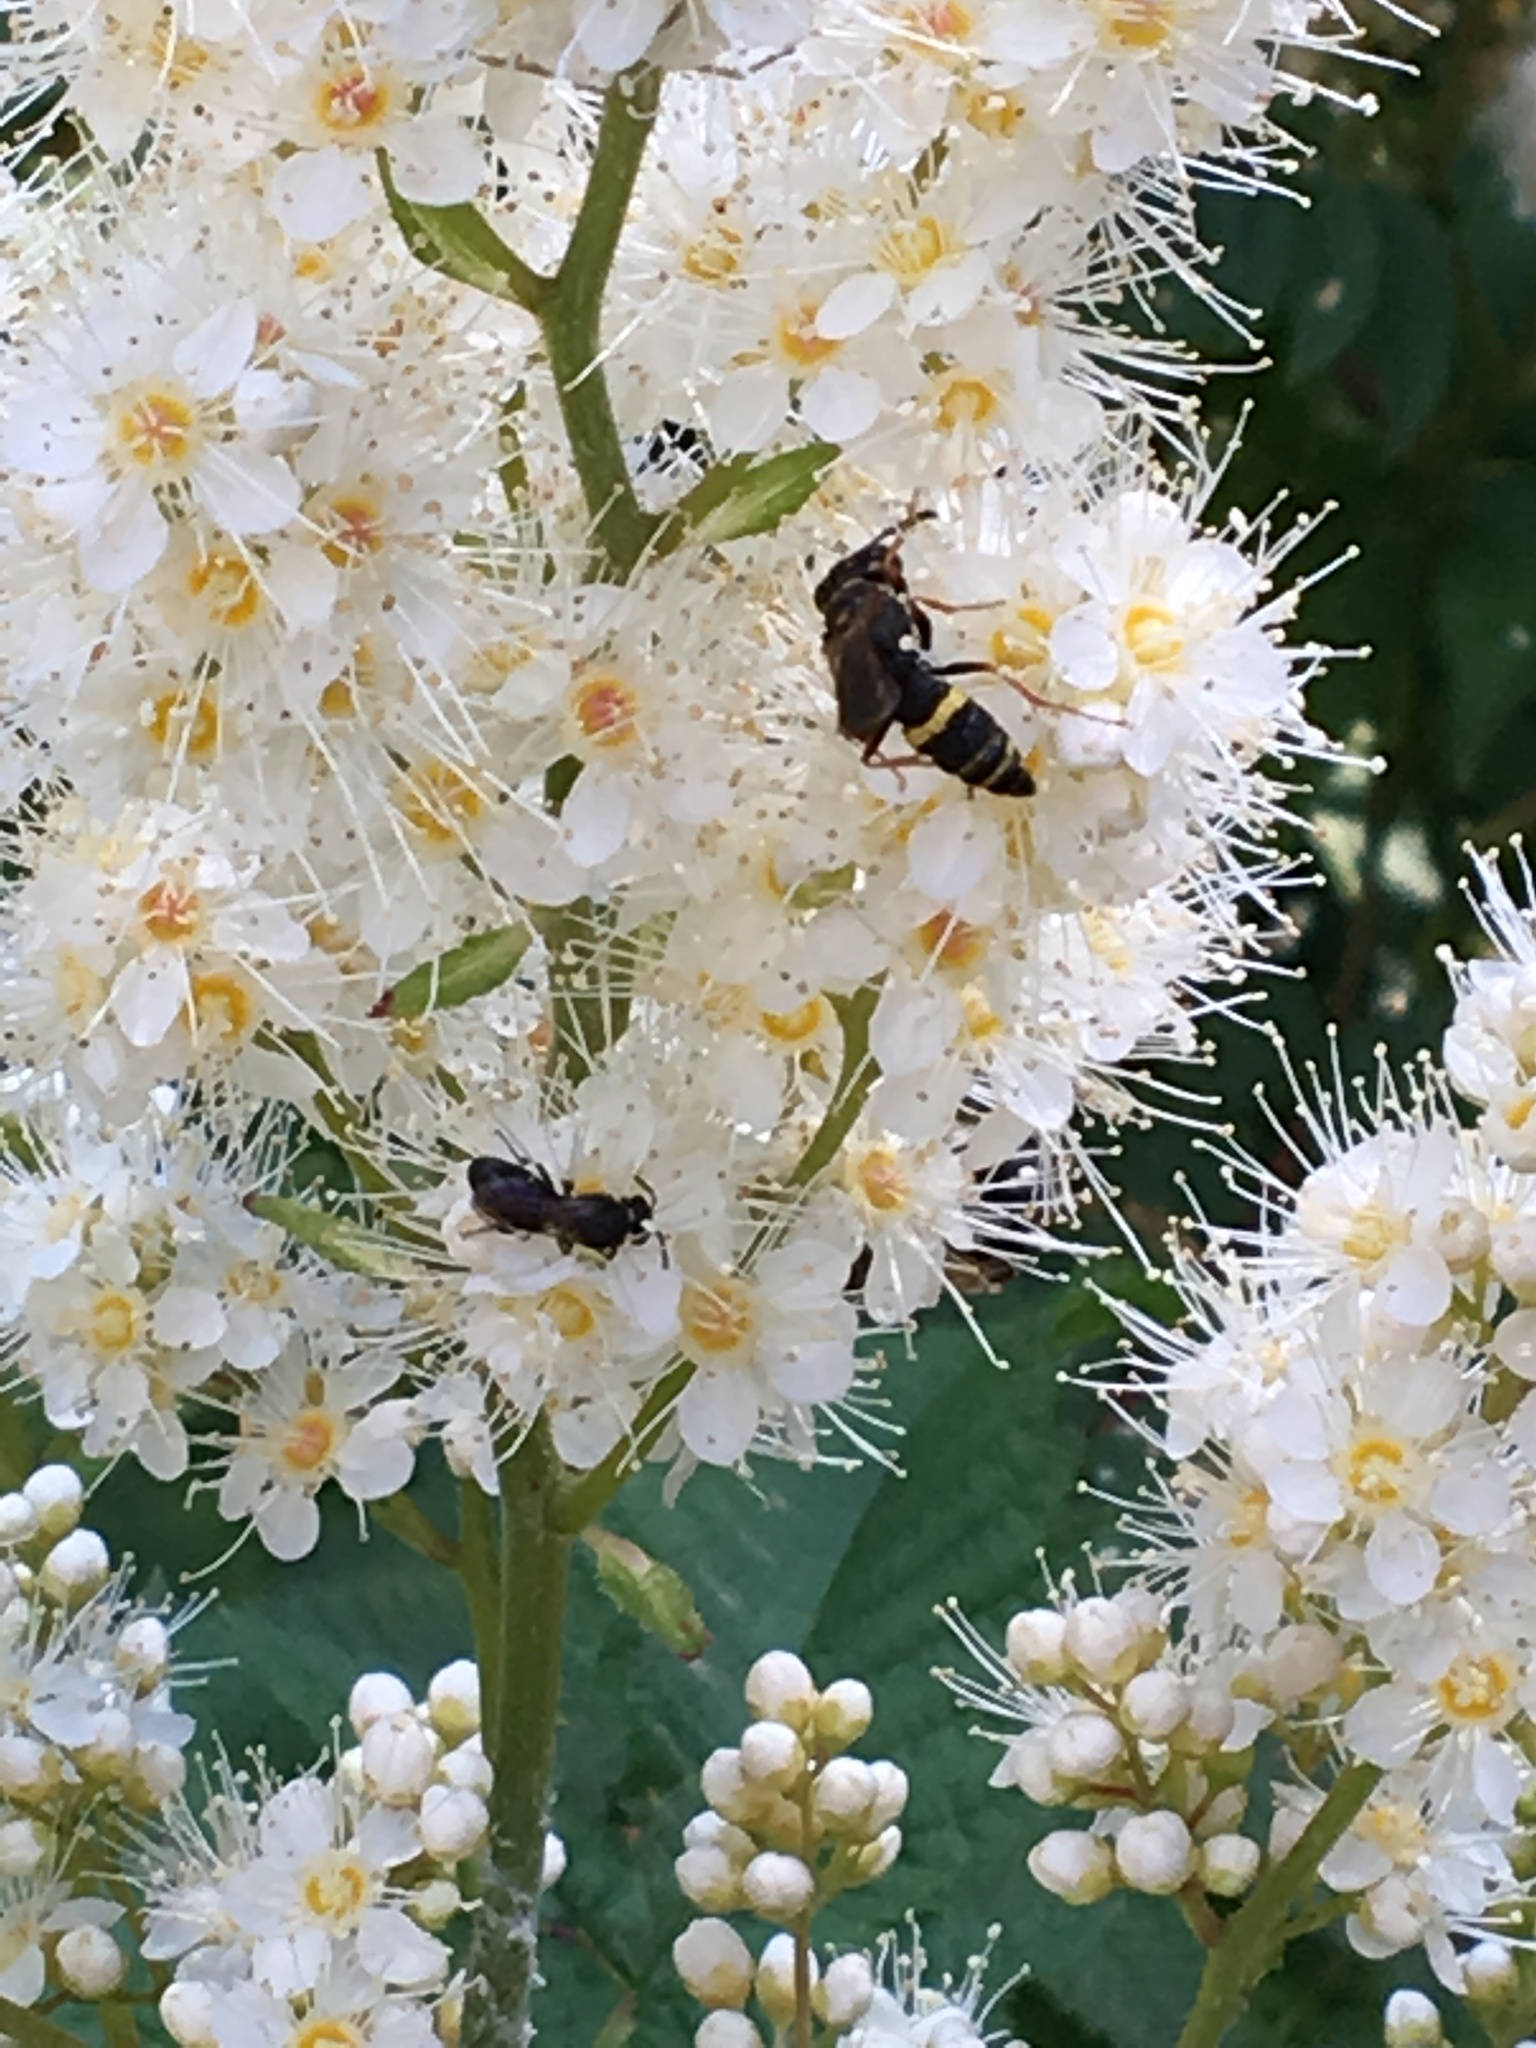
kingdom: Animalia
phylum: Arthropoda
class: Insecta
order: Hymenoptera
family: Crabronidae
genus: Philanthus
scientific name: Philanthus gibbosus
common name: Humped beewolf
